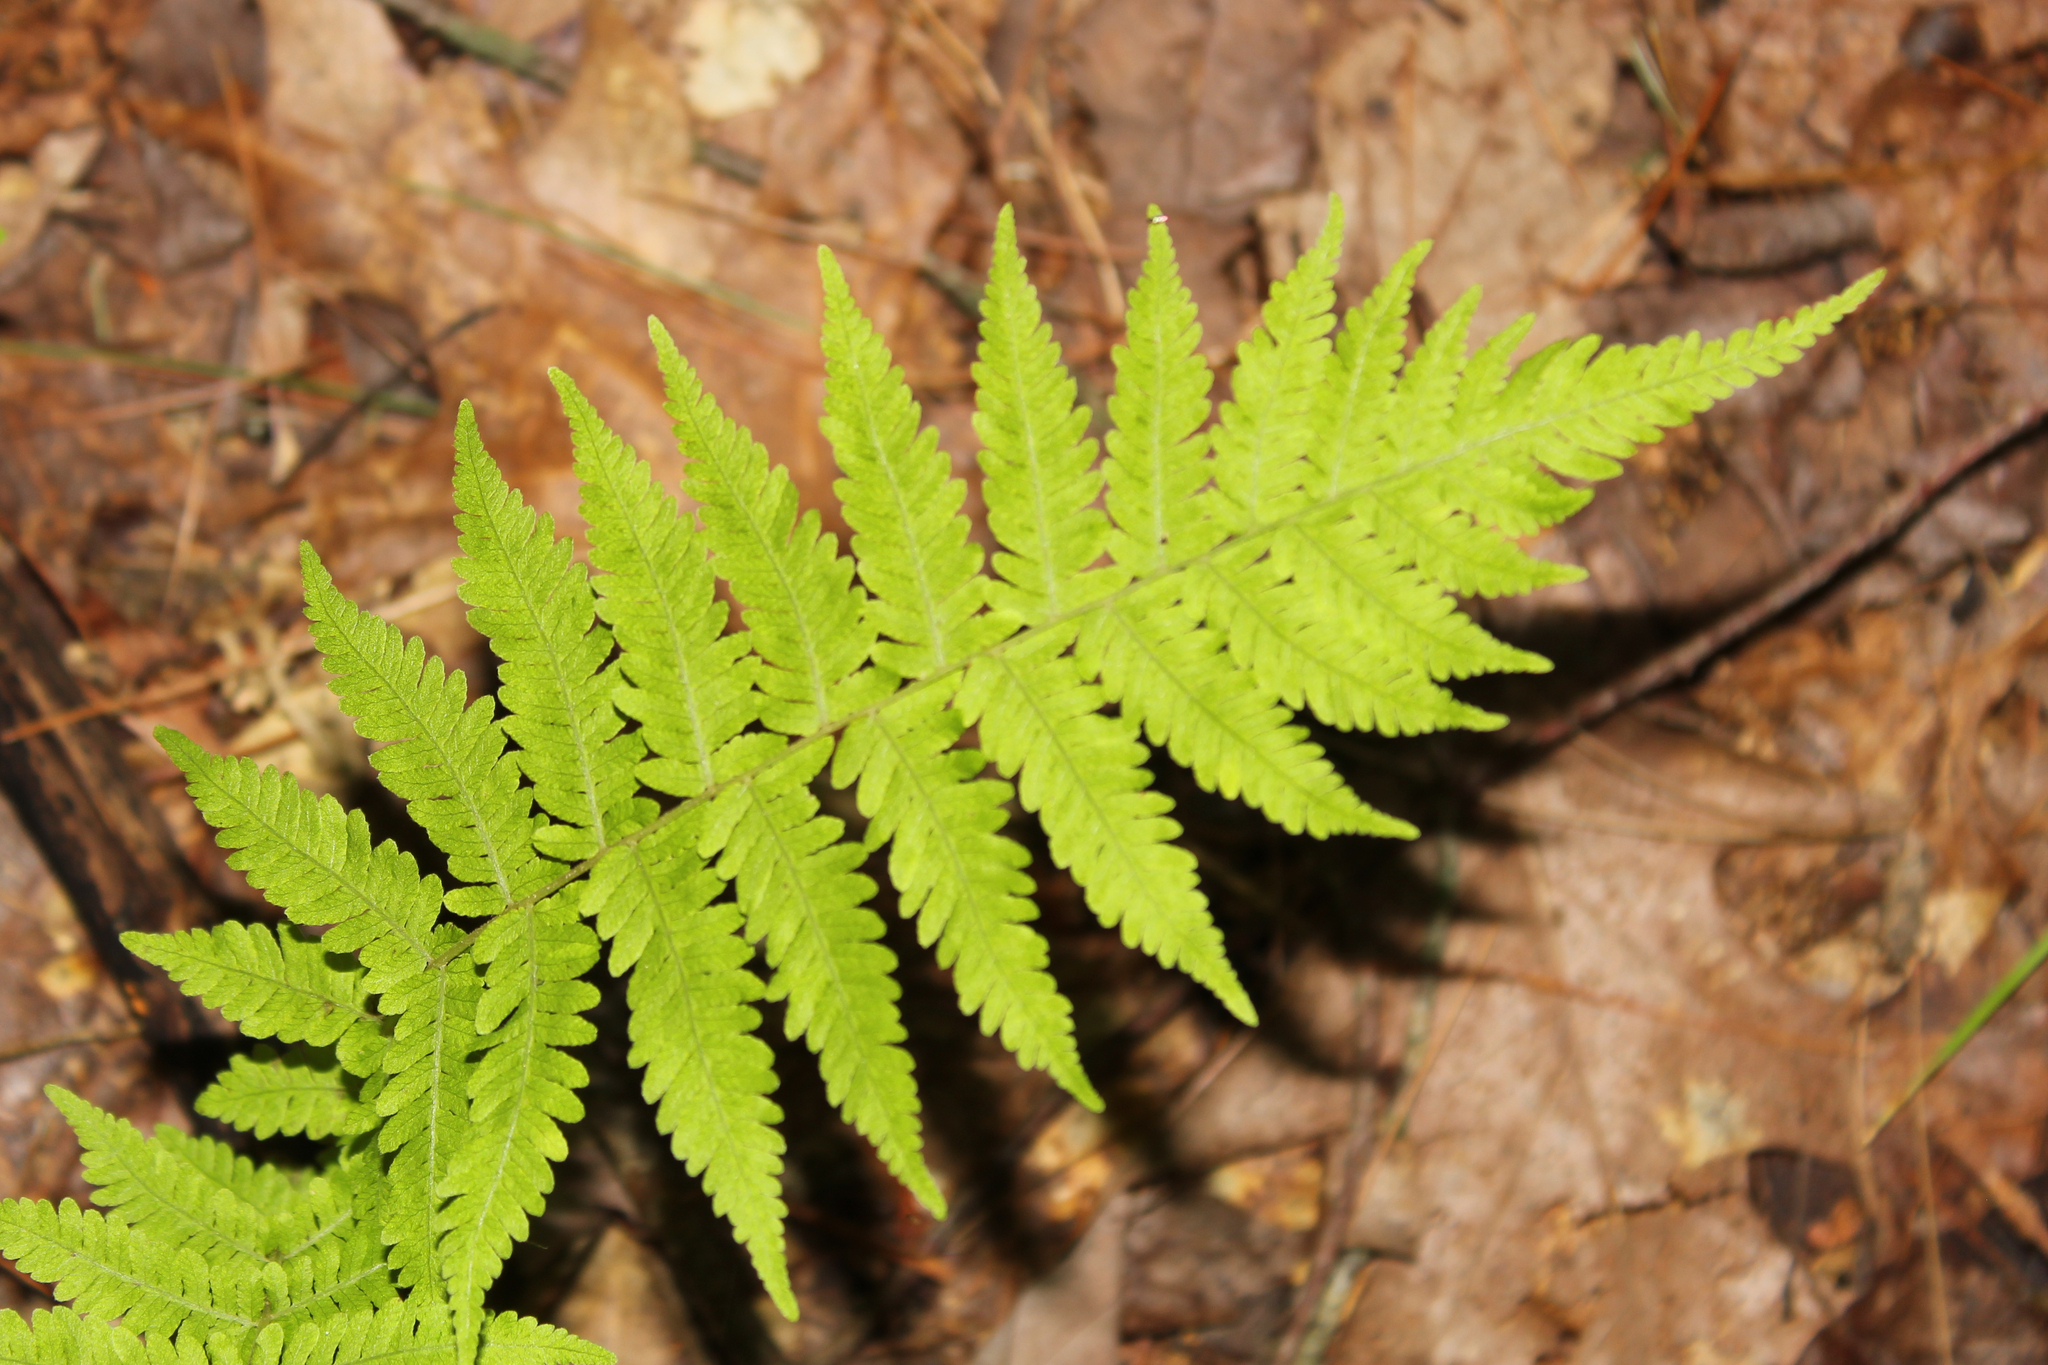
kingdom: Plantae
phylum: Tracheophyta
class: Polypodiopsida
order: Polypodiales
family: Thelypteridaceae
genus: Amauropelta
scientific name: Amauropelta noveboracensis
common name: New york fern
